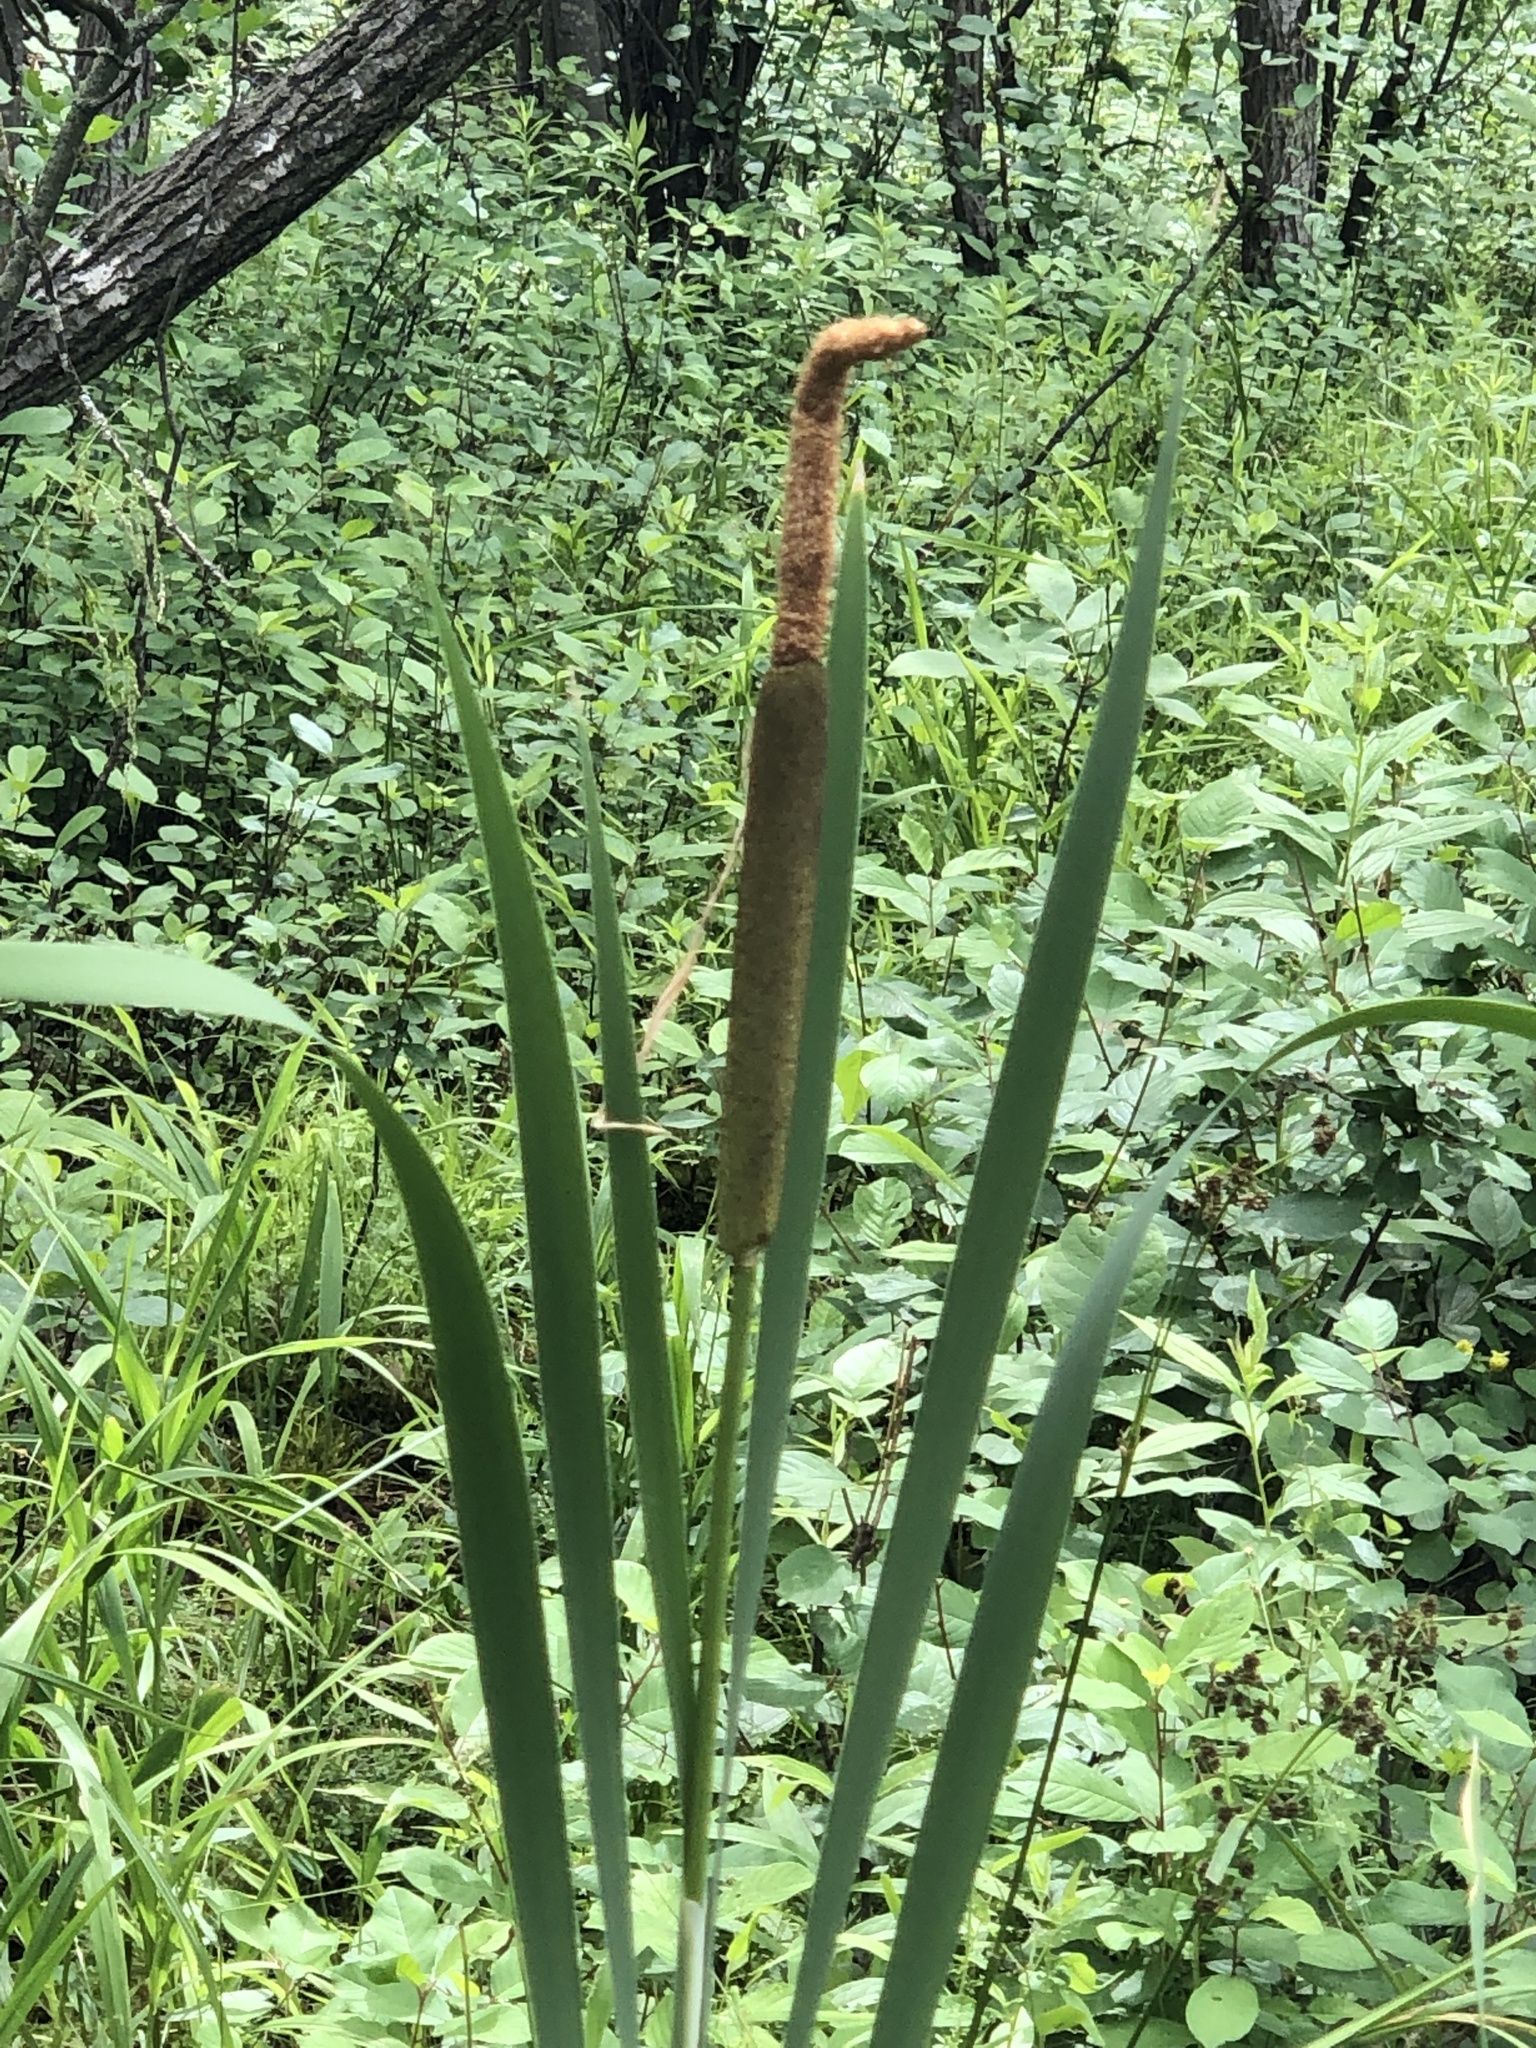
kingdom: Plantae
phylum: Tracheophyta
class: Liliopsida
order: Poales
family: Typhaceae
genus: Typha
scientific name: Typha latifolia
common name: Broadleaf cattail
